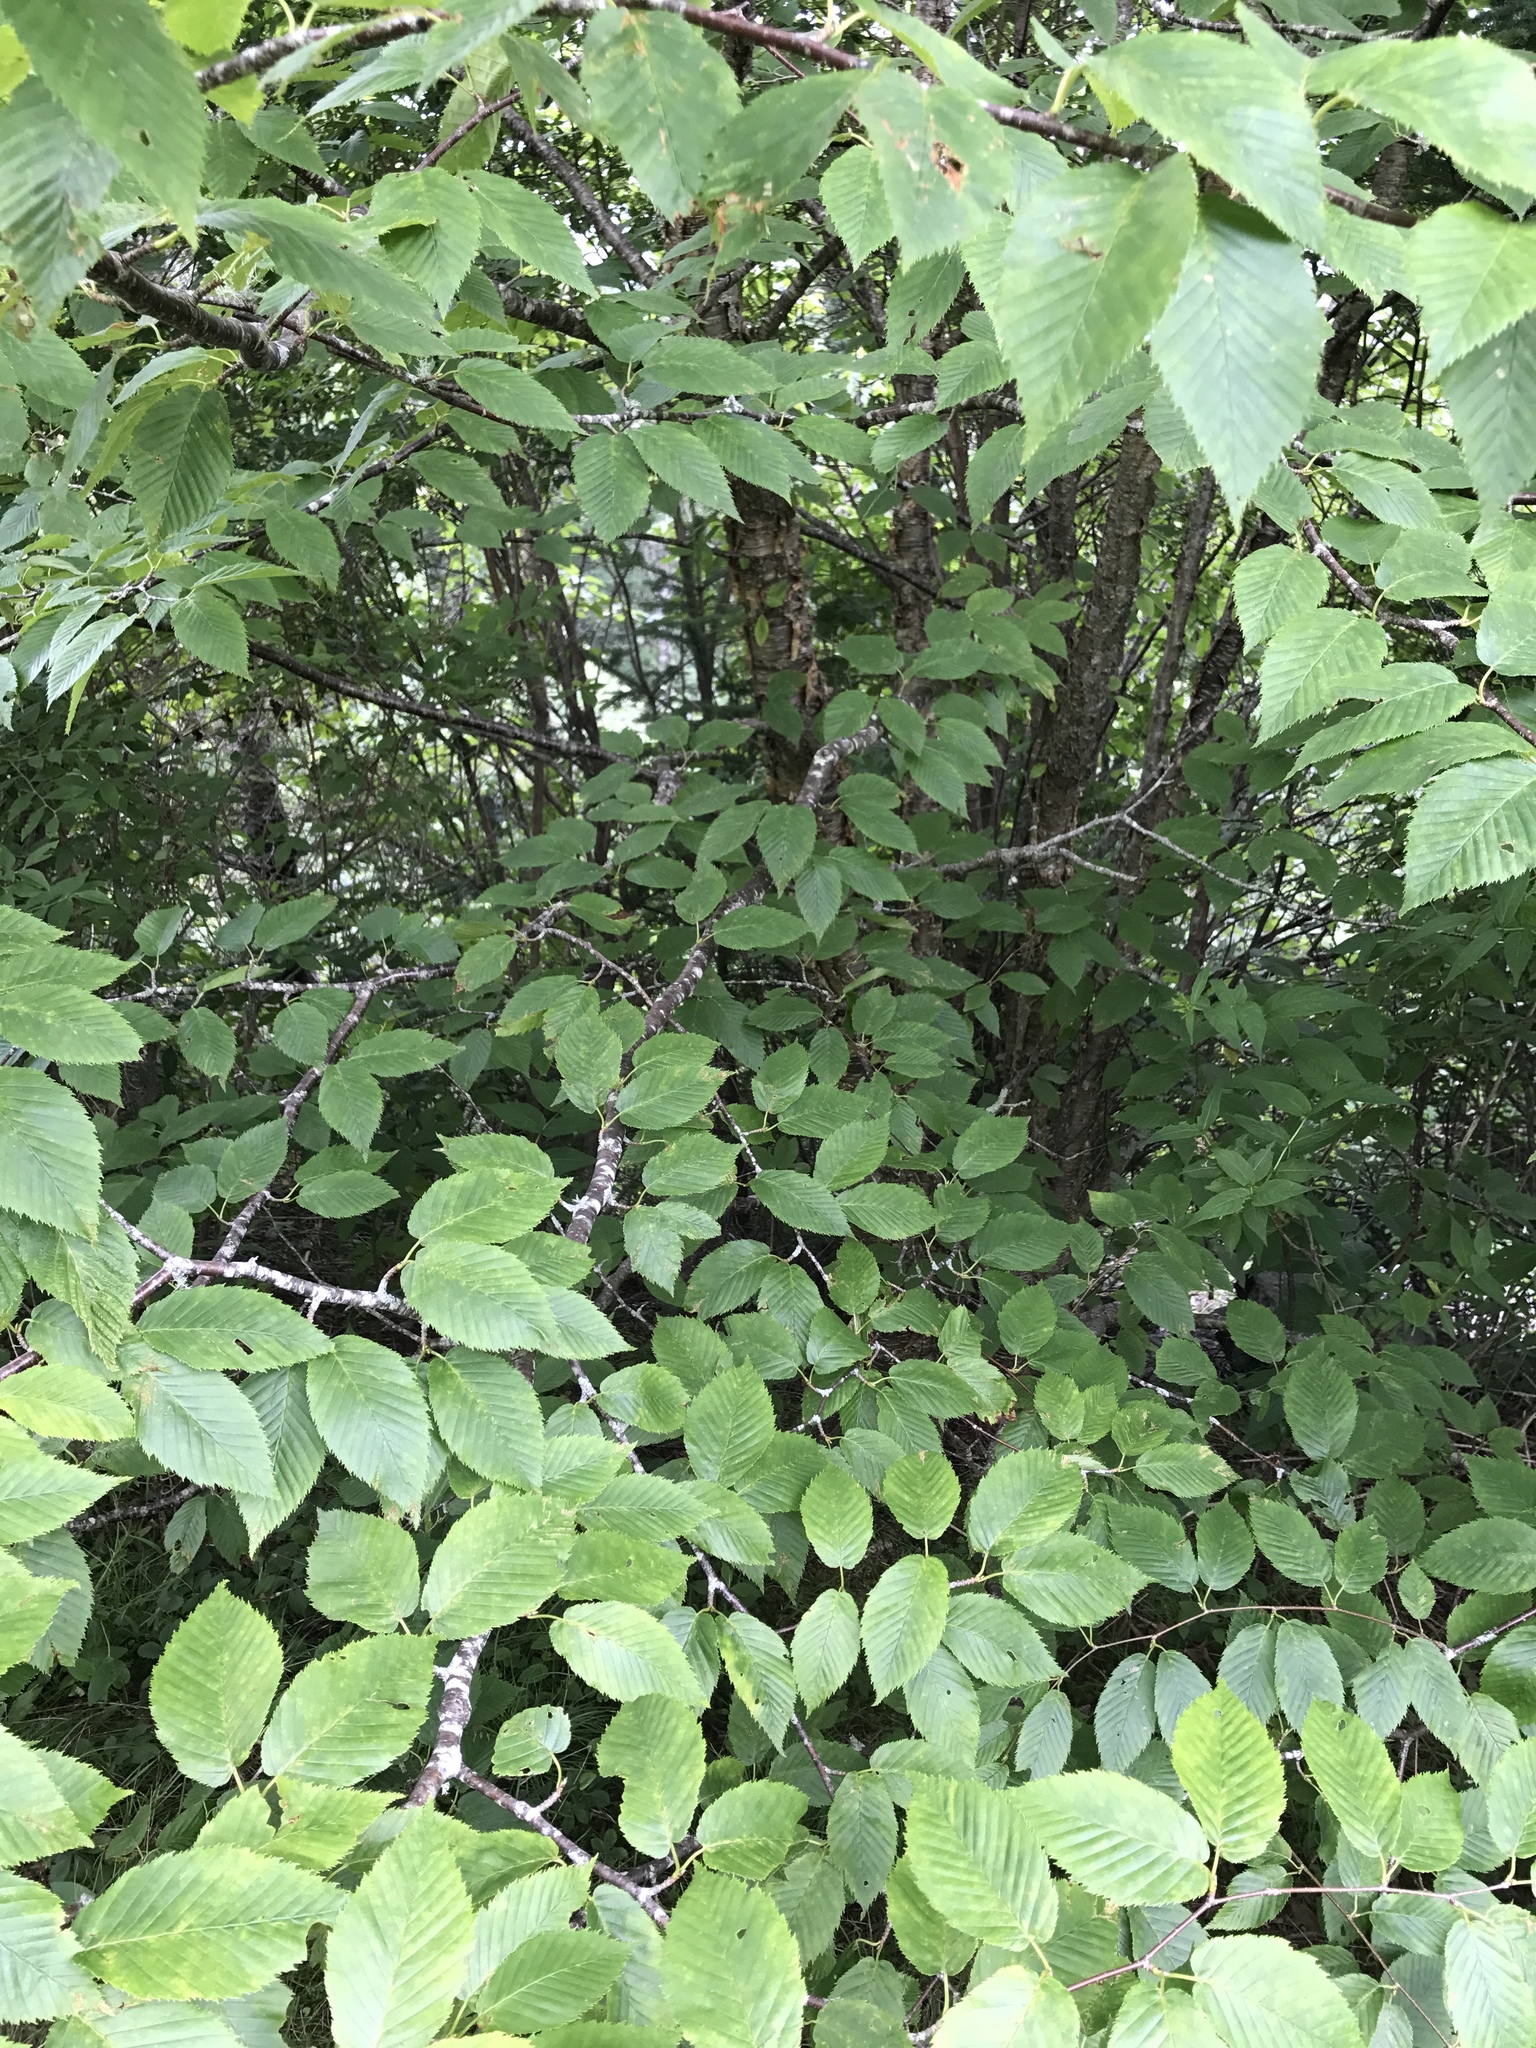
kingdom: Plantae
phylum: Tracheophyta
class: Magnoliopsida
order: Fagales
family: Betulaceae
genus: Betula
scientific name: Betula alleghaniensis
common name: Yellow birch
